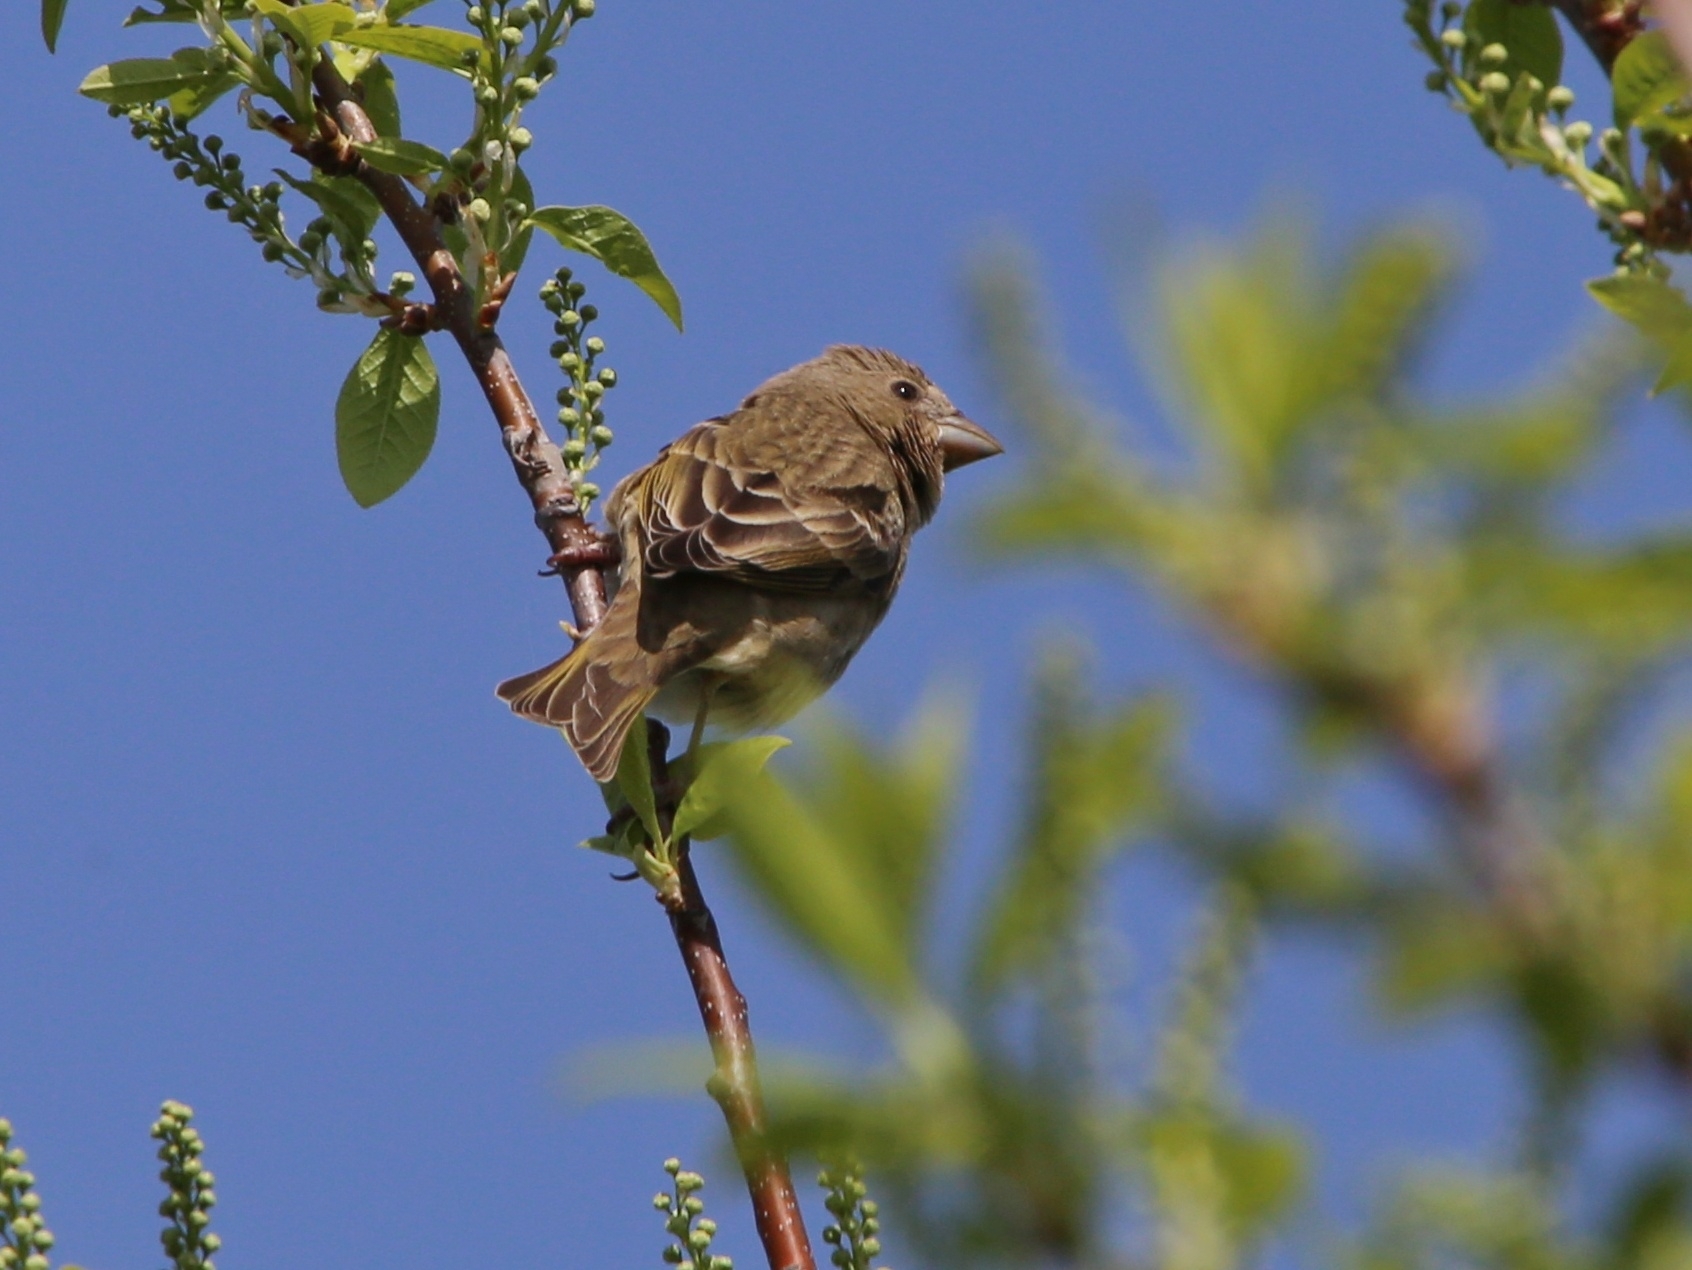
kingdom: Animalia
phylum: Chordata
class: Aves
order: Passeriformes
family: Fringillidae
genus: Carpodacus
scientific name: Carpodacus erythrinus
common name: Common rosefinch
